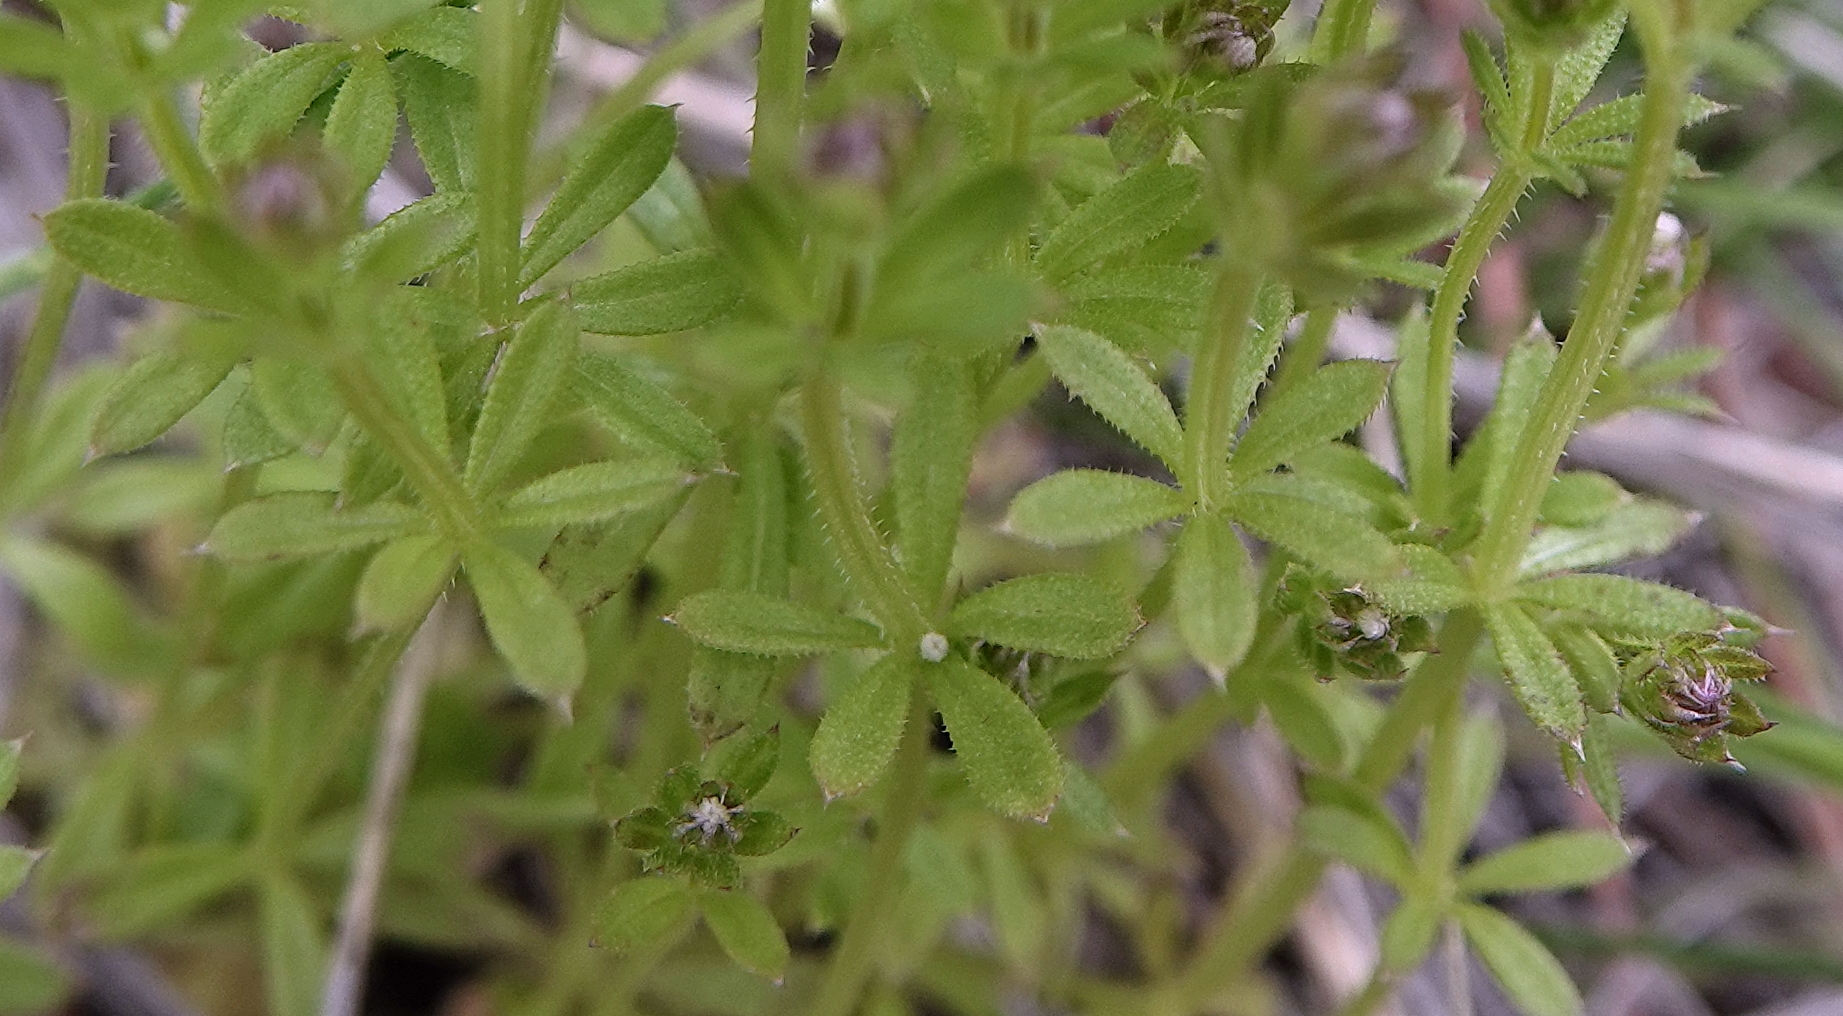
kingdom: Plantae
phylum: Tracheophyta
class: Magnoliopsida
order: Gentianales
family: Rubiaceae
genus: Galium
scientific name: Galium aparine
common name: Cleavers
